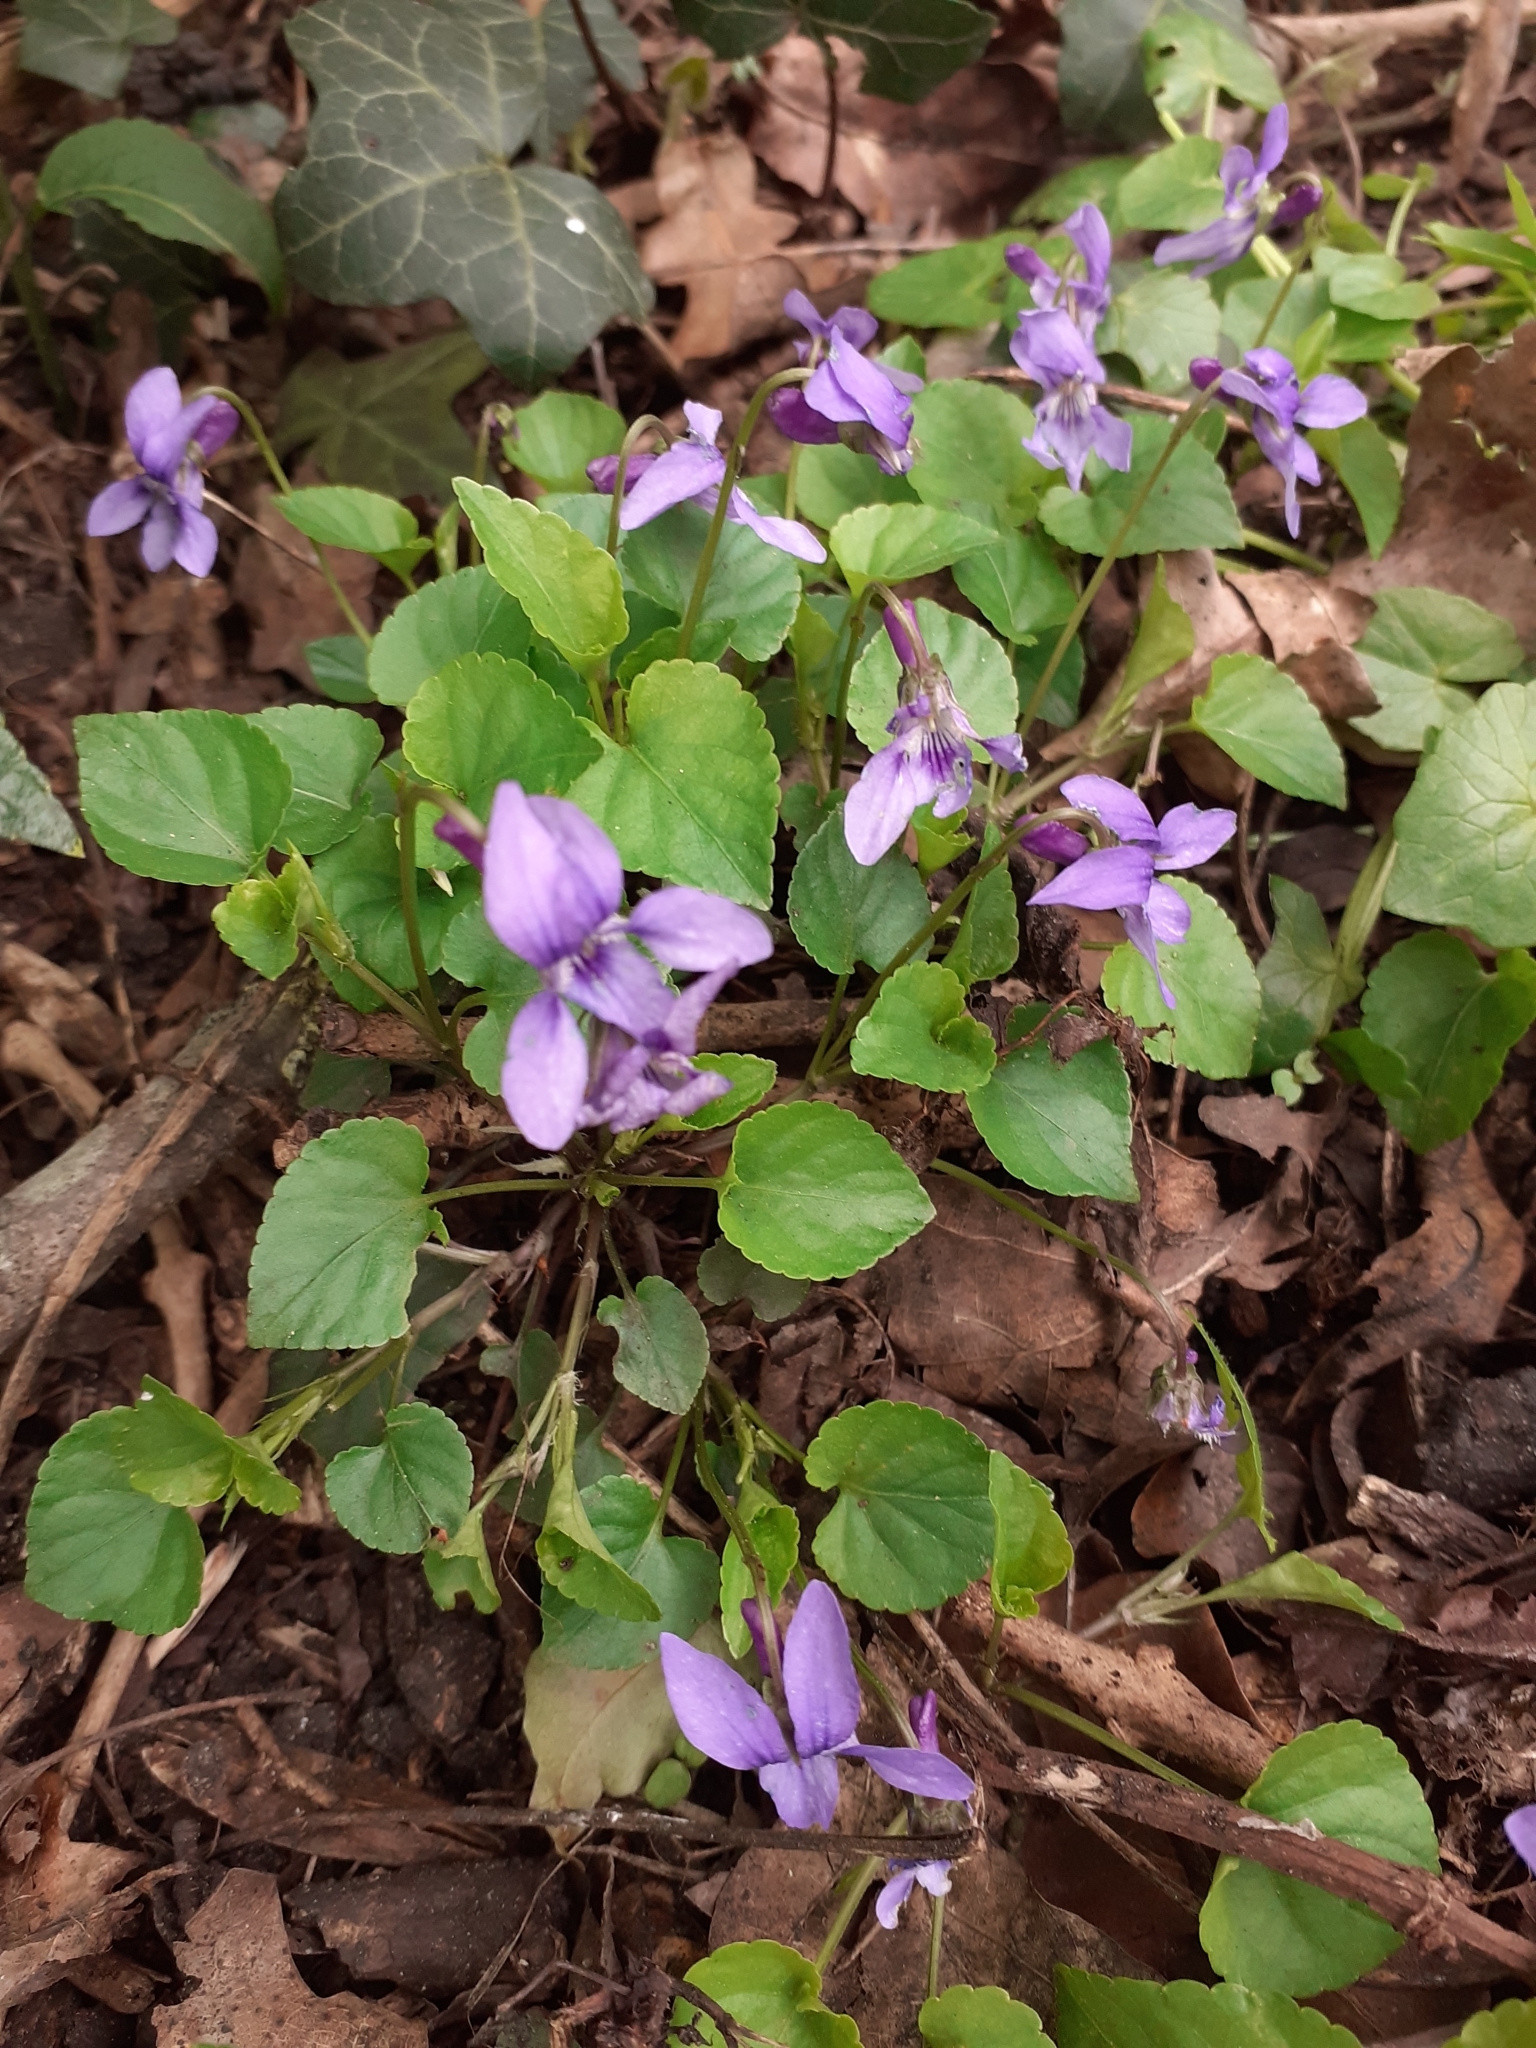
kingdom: Plantae
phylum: Tracheophyta
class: Magnoliopsida
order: Malpighiales
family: Violaceae
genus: Viola
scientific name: Viola reichenbachiana
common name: Early dog-violet
